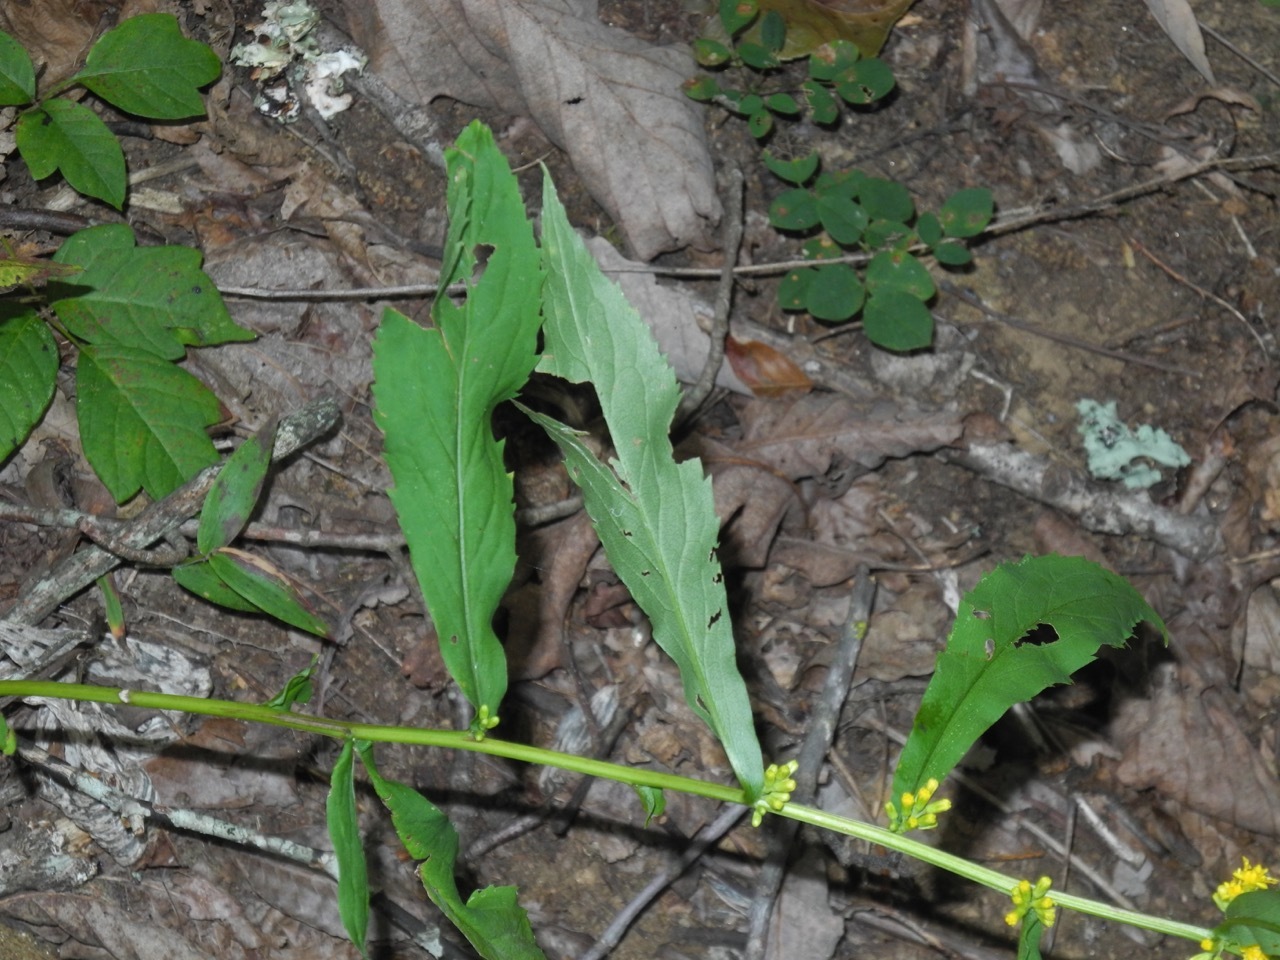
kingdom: Plantae
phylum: Tracheophyta
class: Magnoliopsida
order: Asterales
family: Asteraceae
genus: Solidago
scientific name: Solidago caesia
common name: Woodland goldenrod
